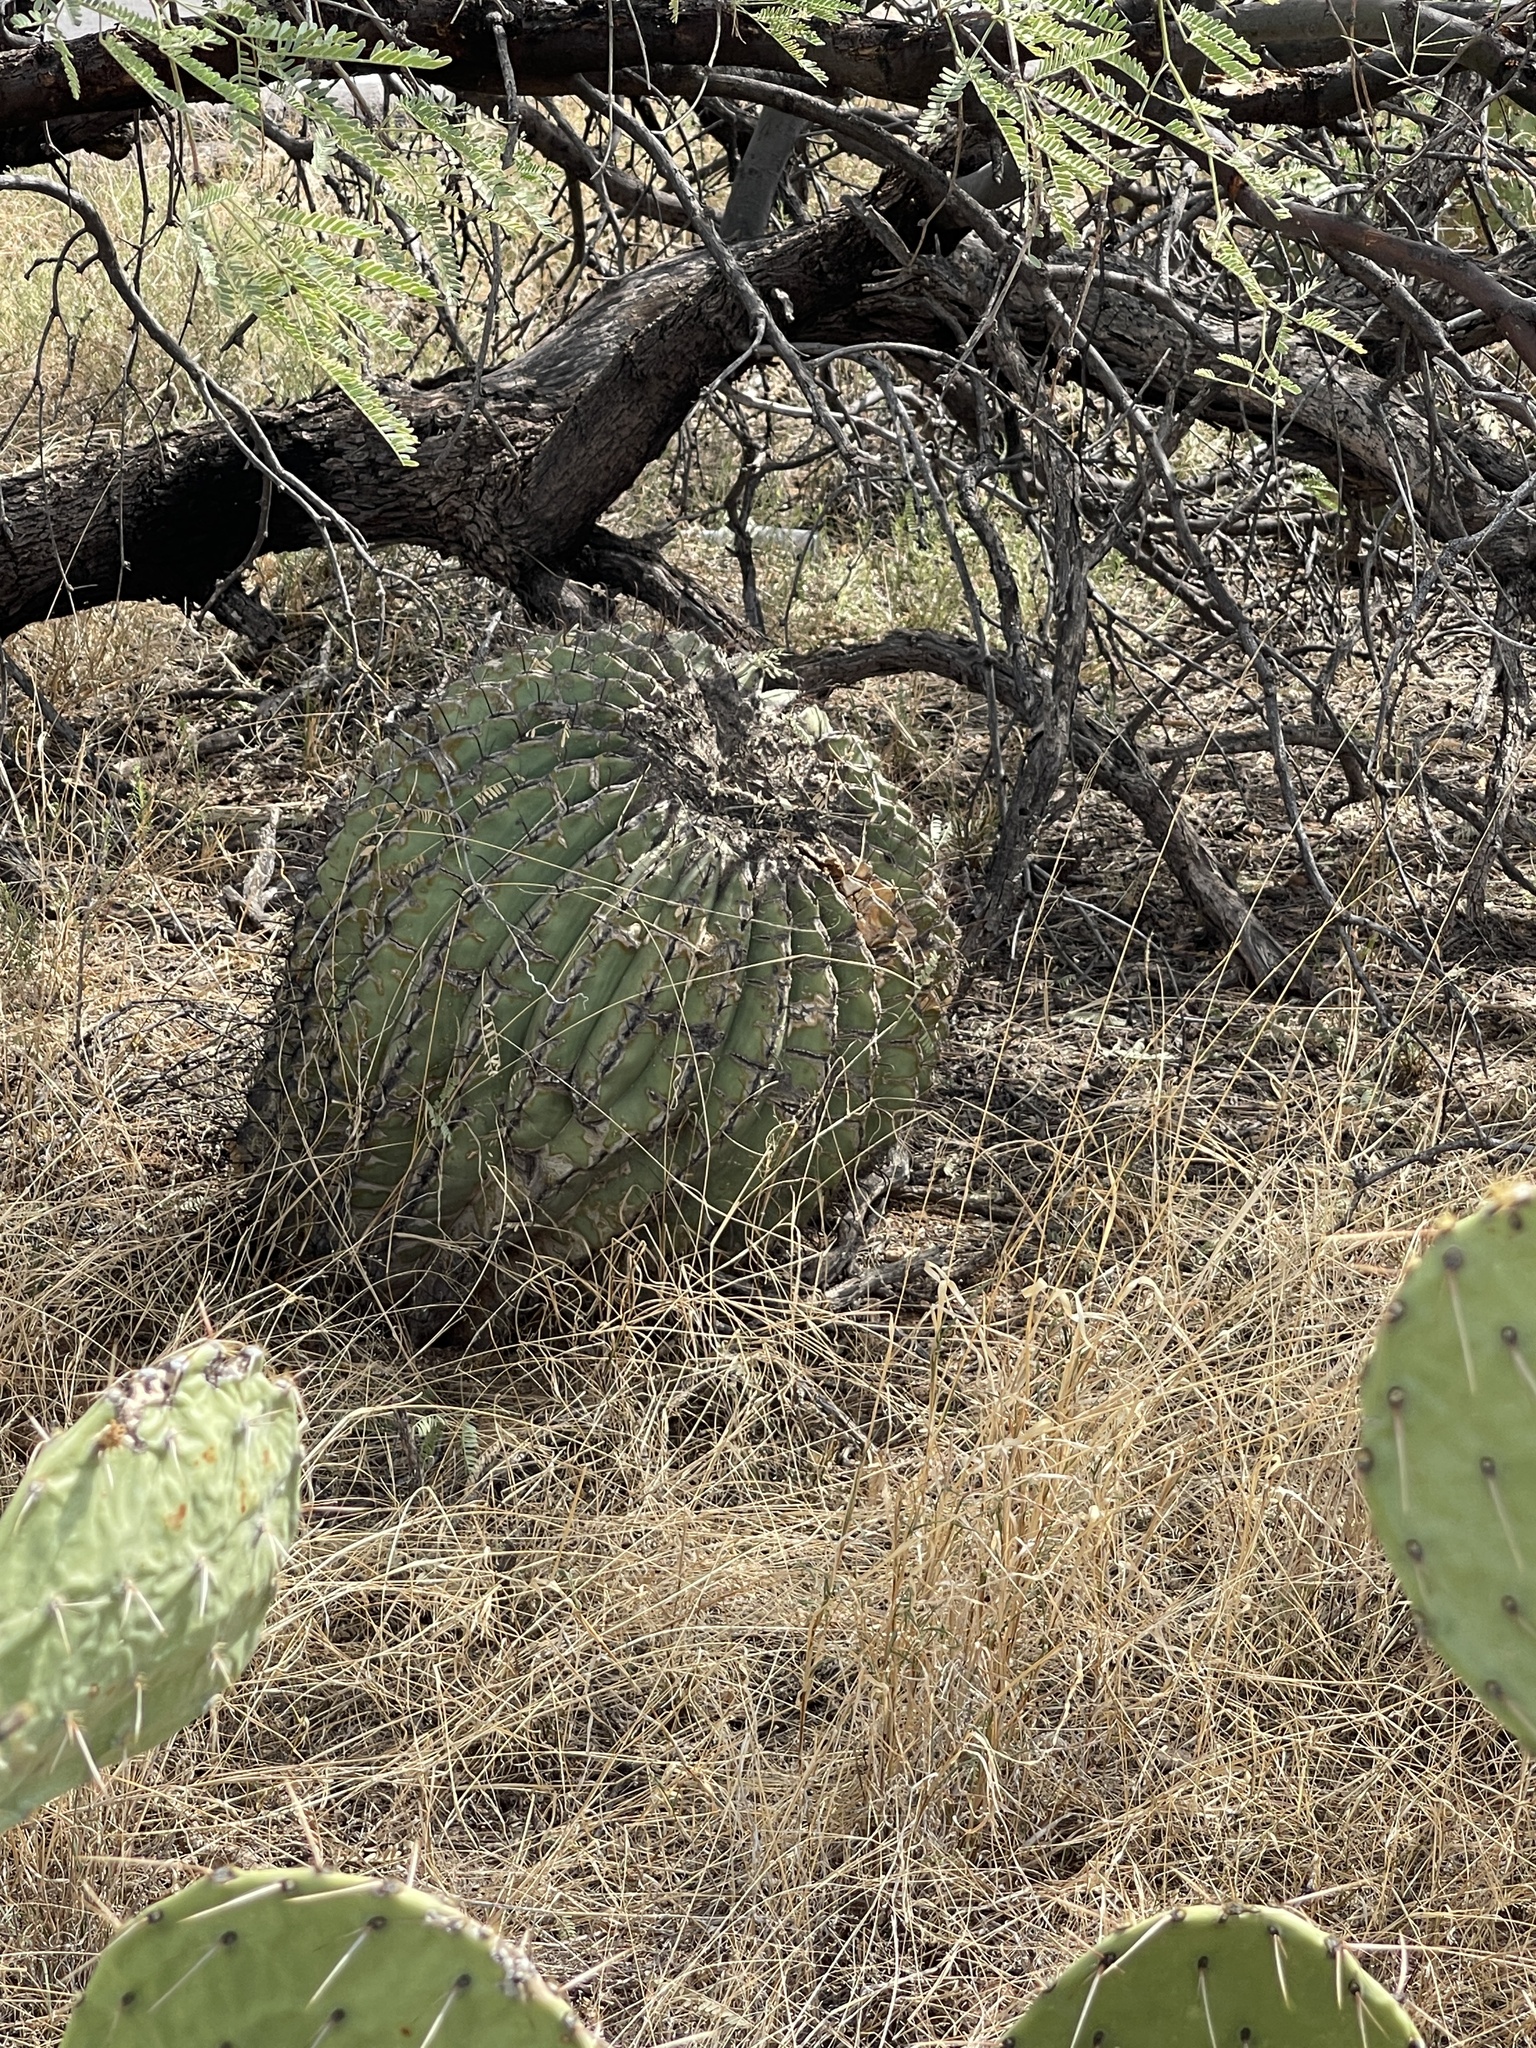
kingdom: Plantae
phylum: Tracheophyta
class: Magnoliopsida
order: Caryophyllales
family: Cactaceae
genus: Ferocactus
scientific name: Ferocactus wislizeni
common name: Candy barrel cactus
